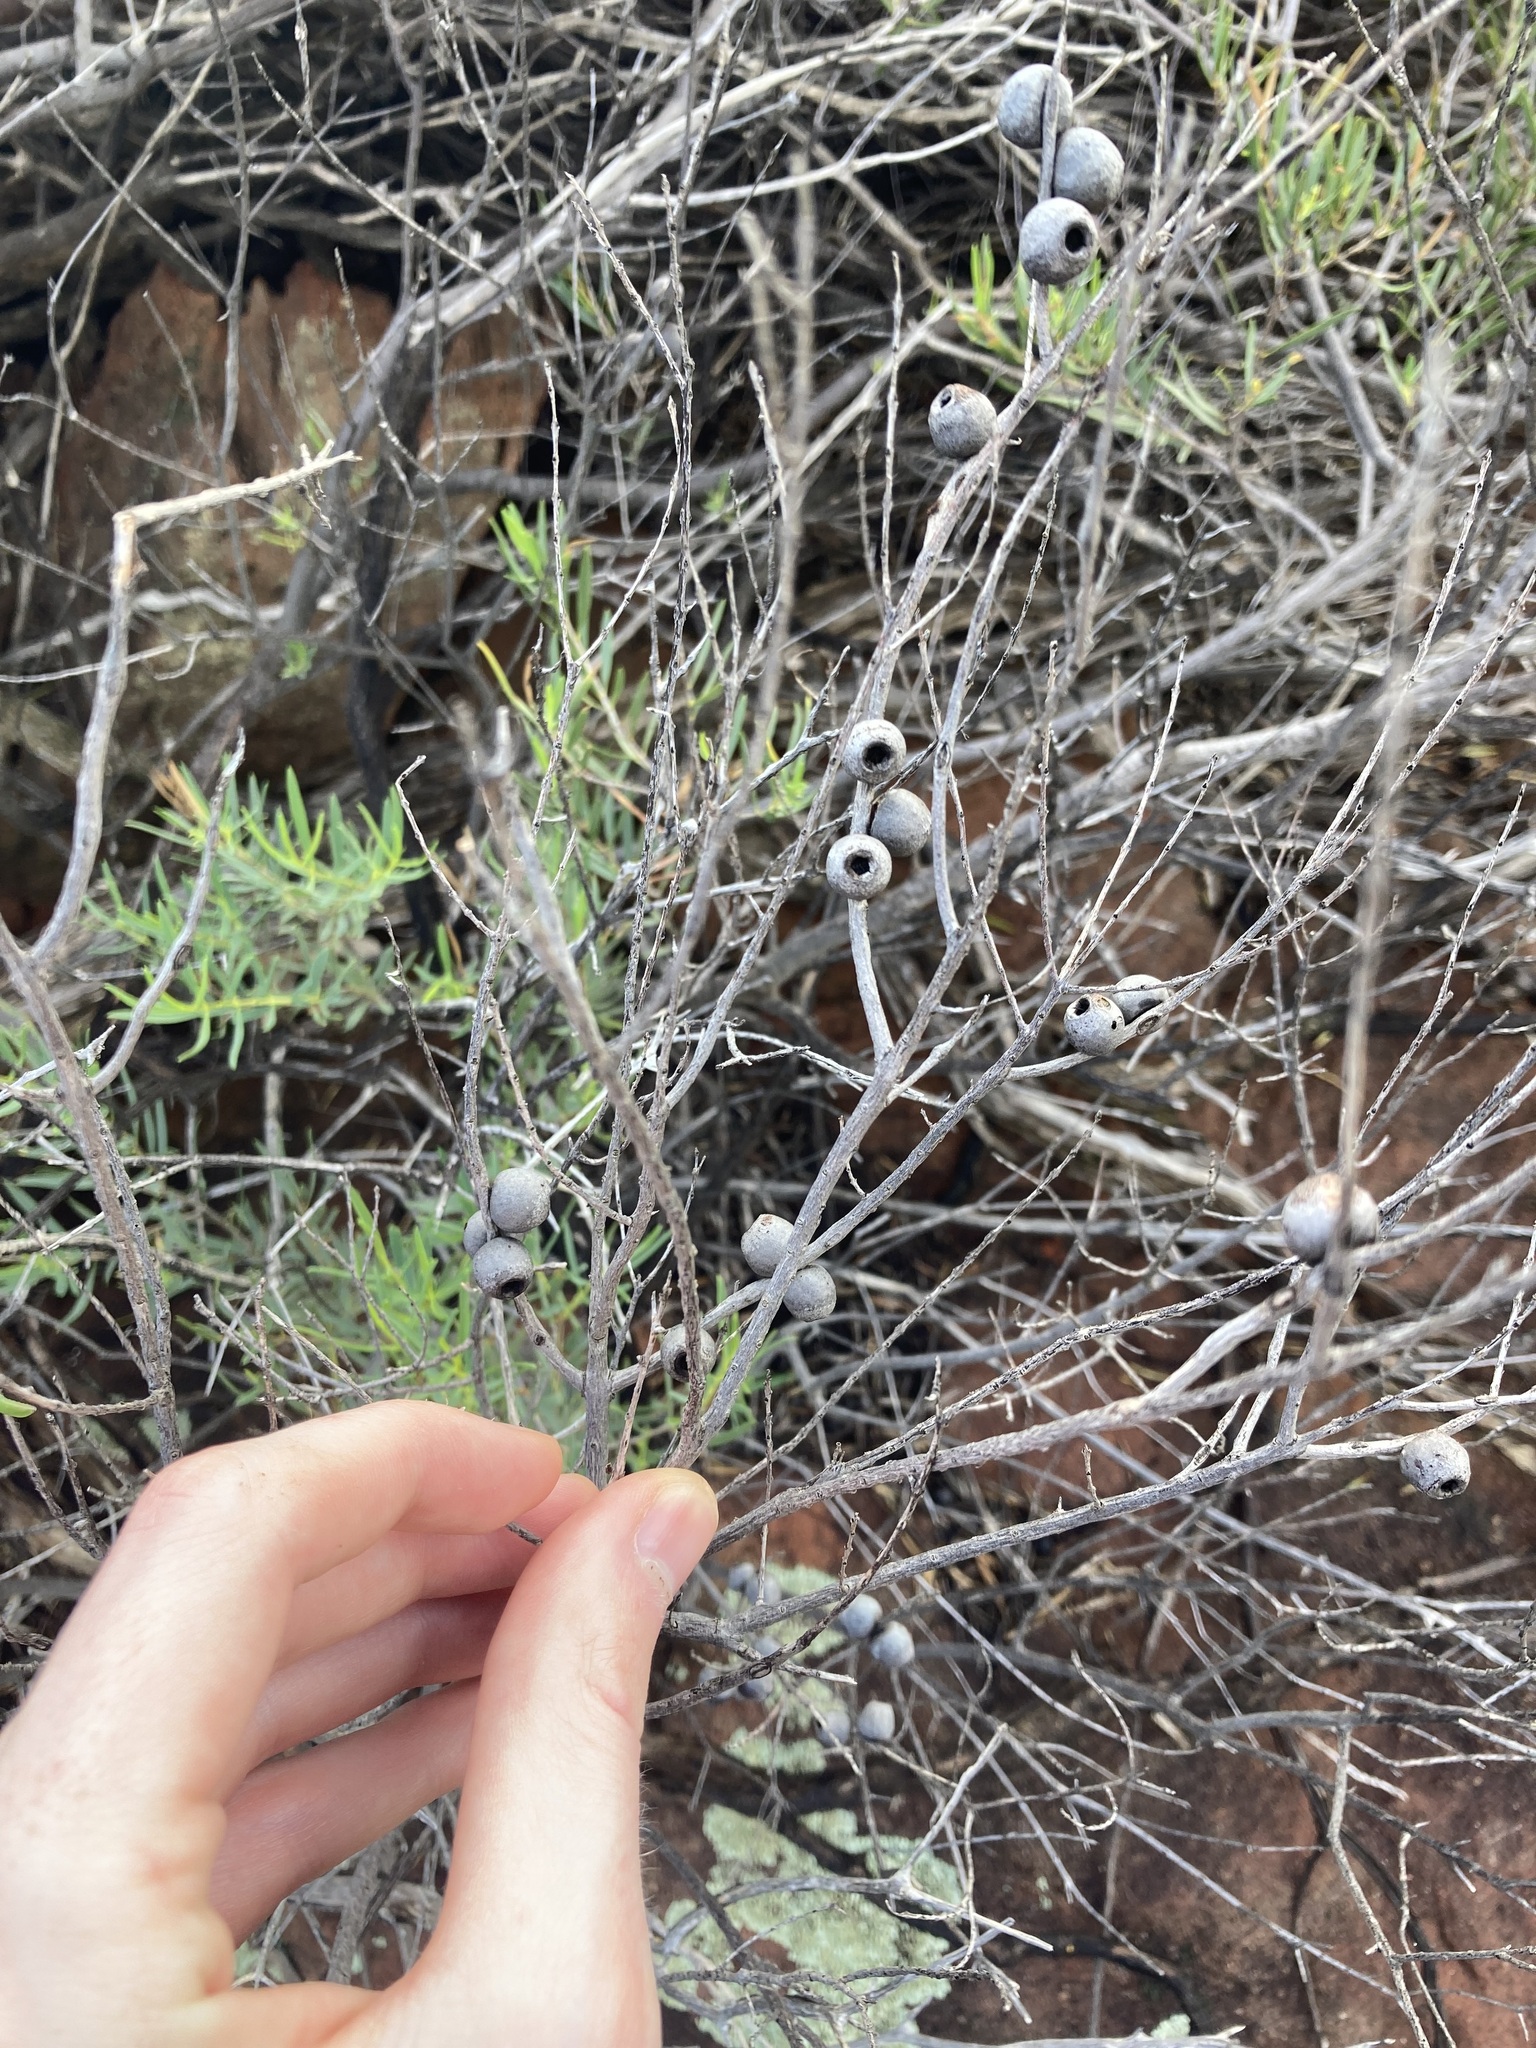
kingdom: Plantae
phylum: Tracheophyta
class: Magnoliopsida
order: Myrtales
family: Myrtaceae
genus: Melaleuca
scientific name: Melaleuca radula
